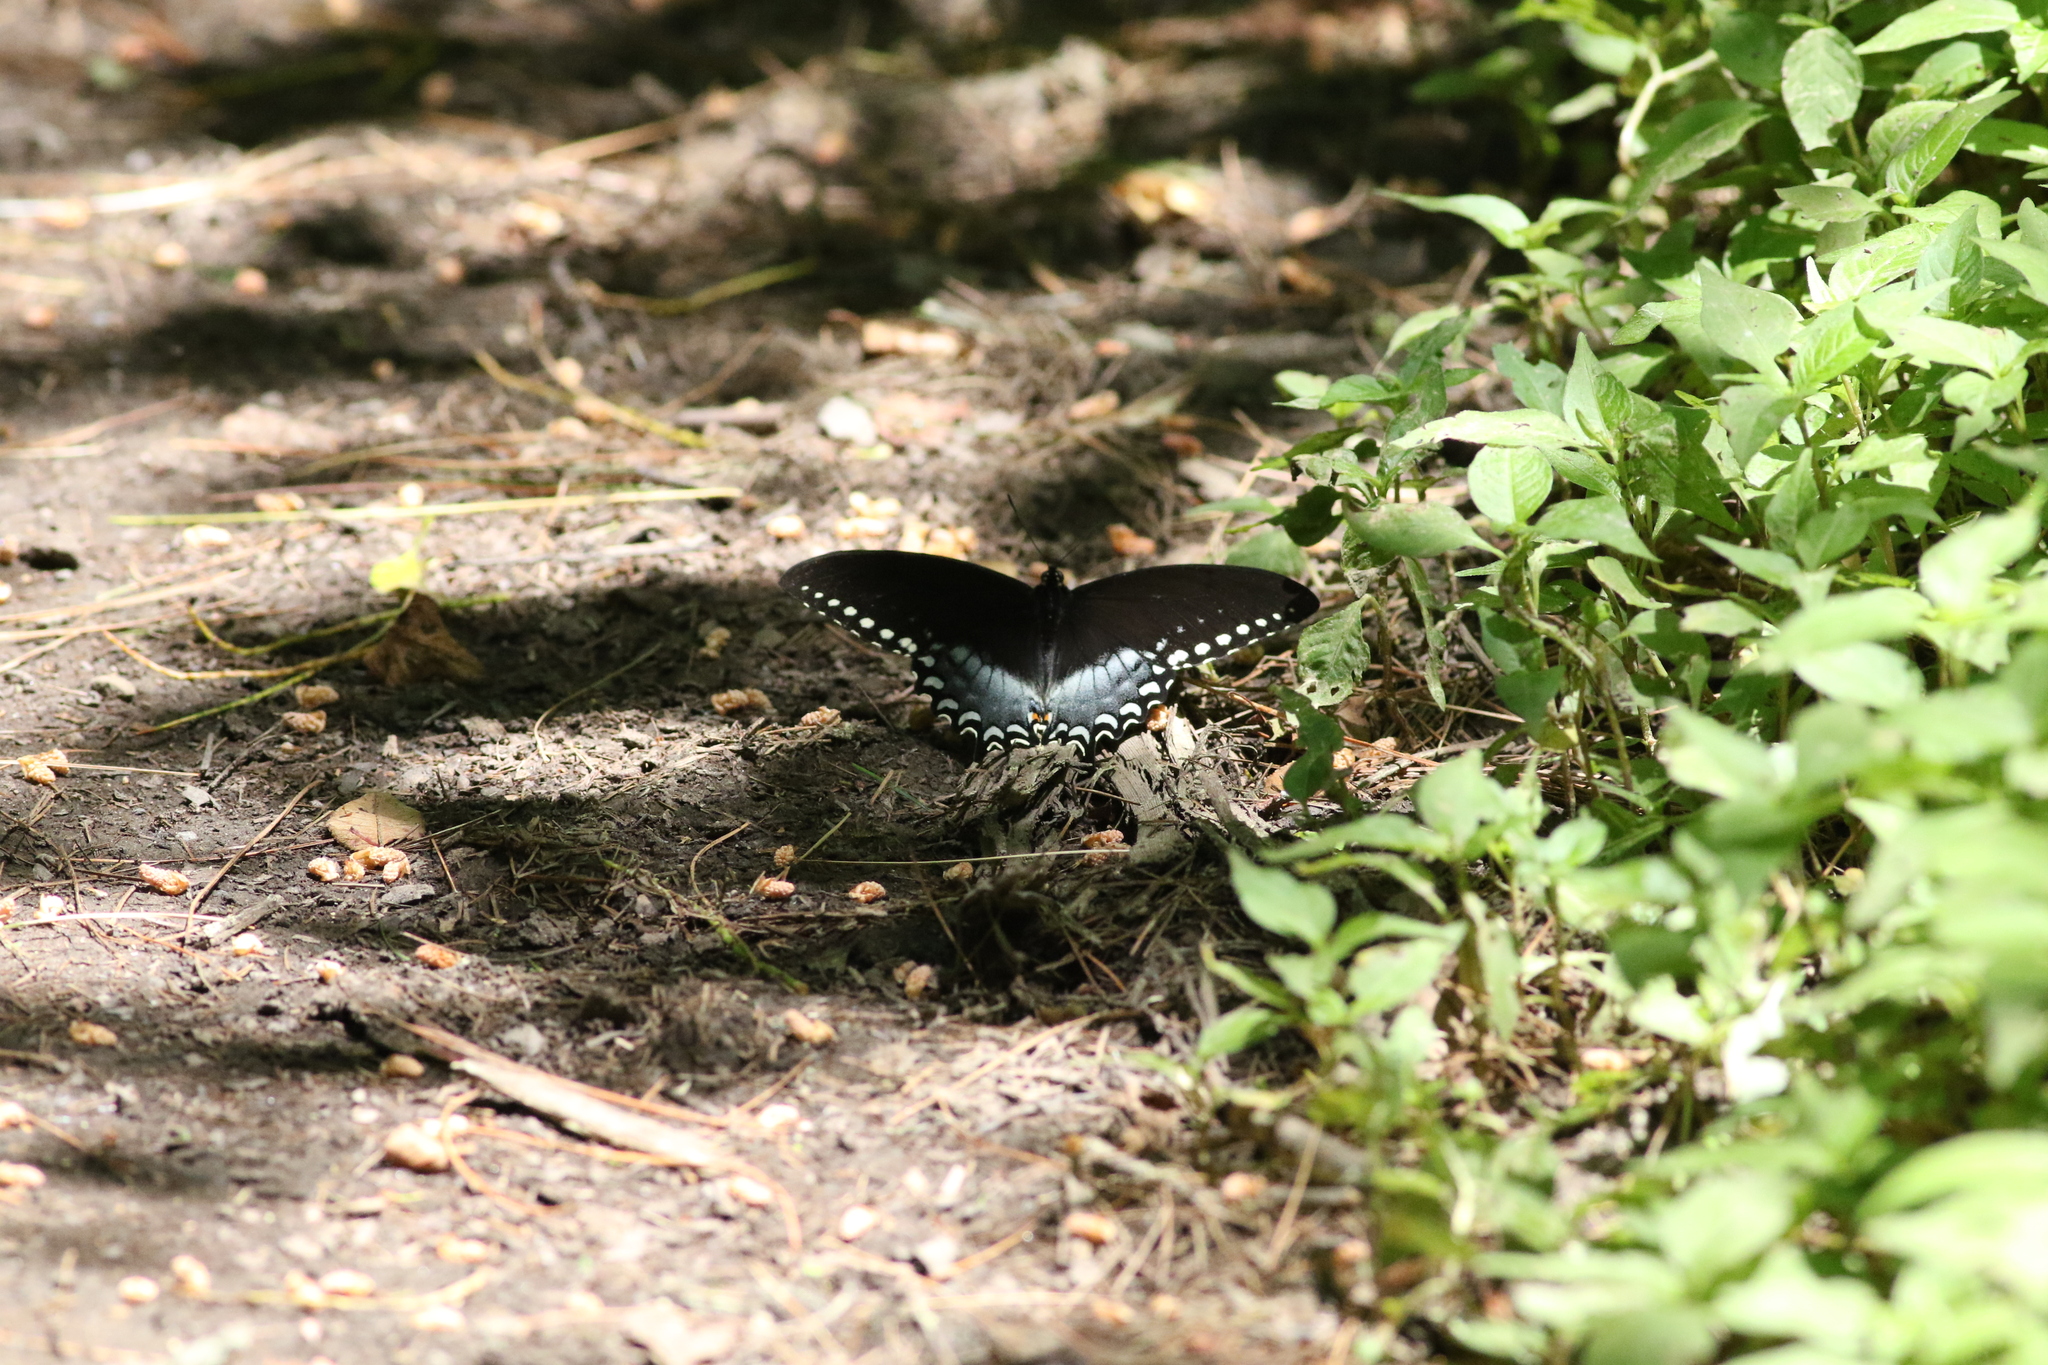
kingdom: Animalia
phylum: Arthropoda
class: Insecta
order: Lepidoptera
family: Papilionidae
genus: Papilio
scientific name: Papilio troilus
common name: Spicebush swallowtail
